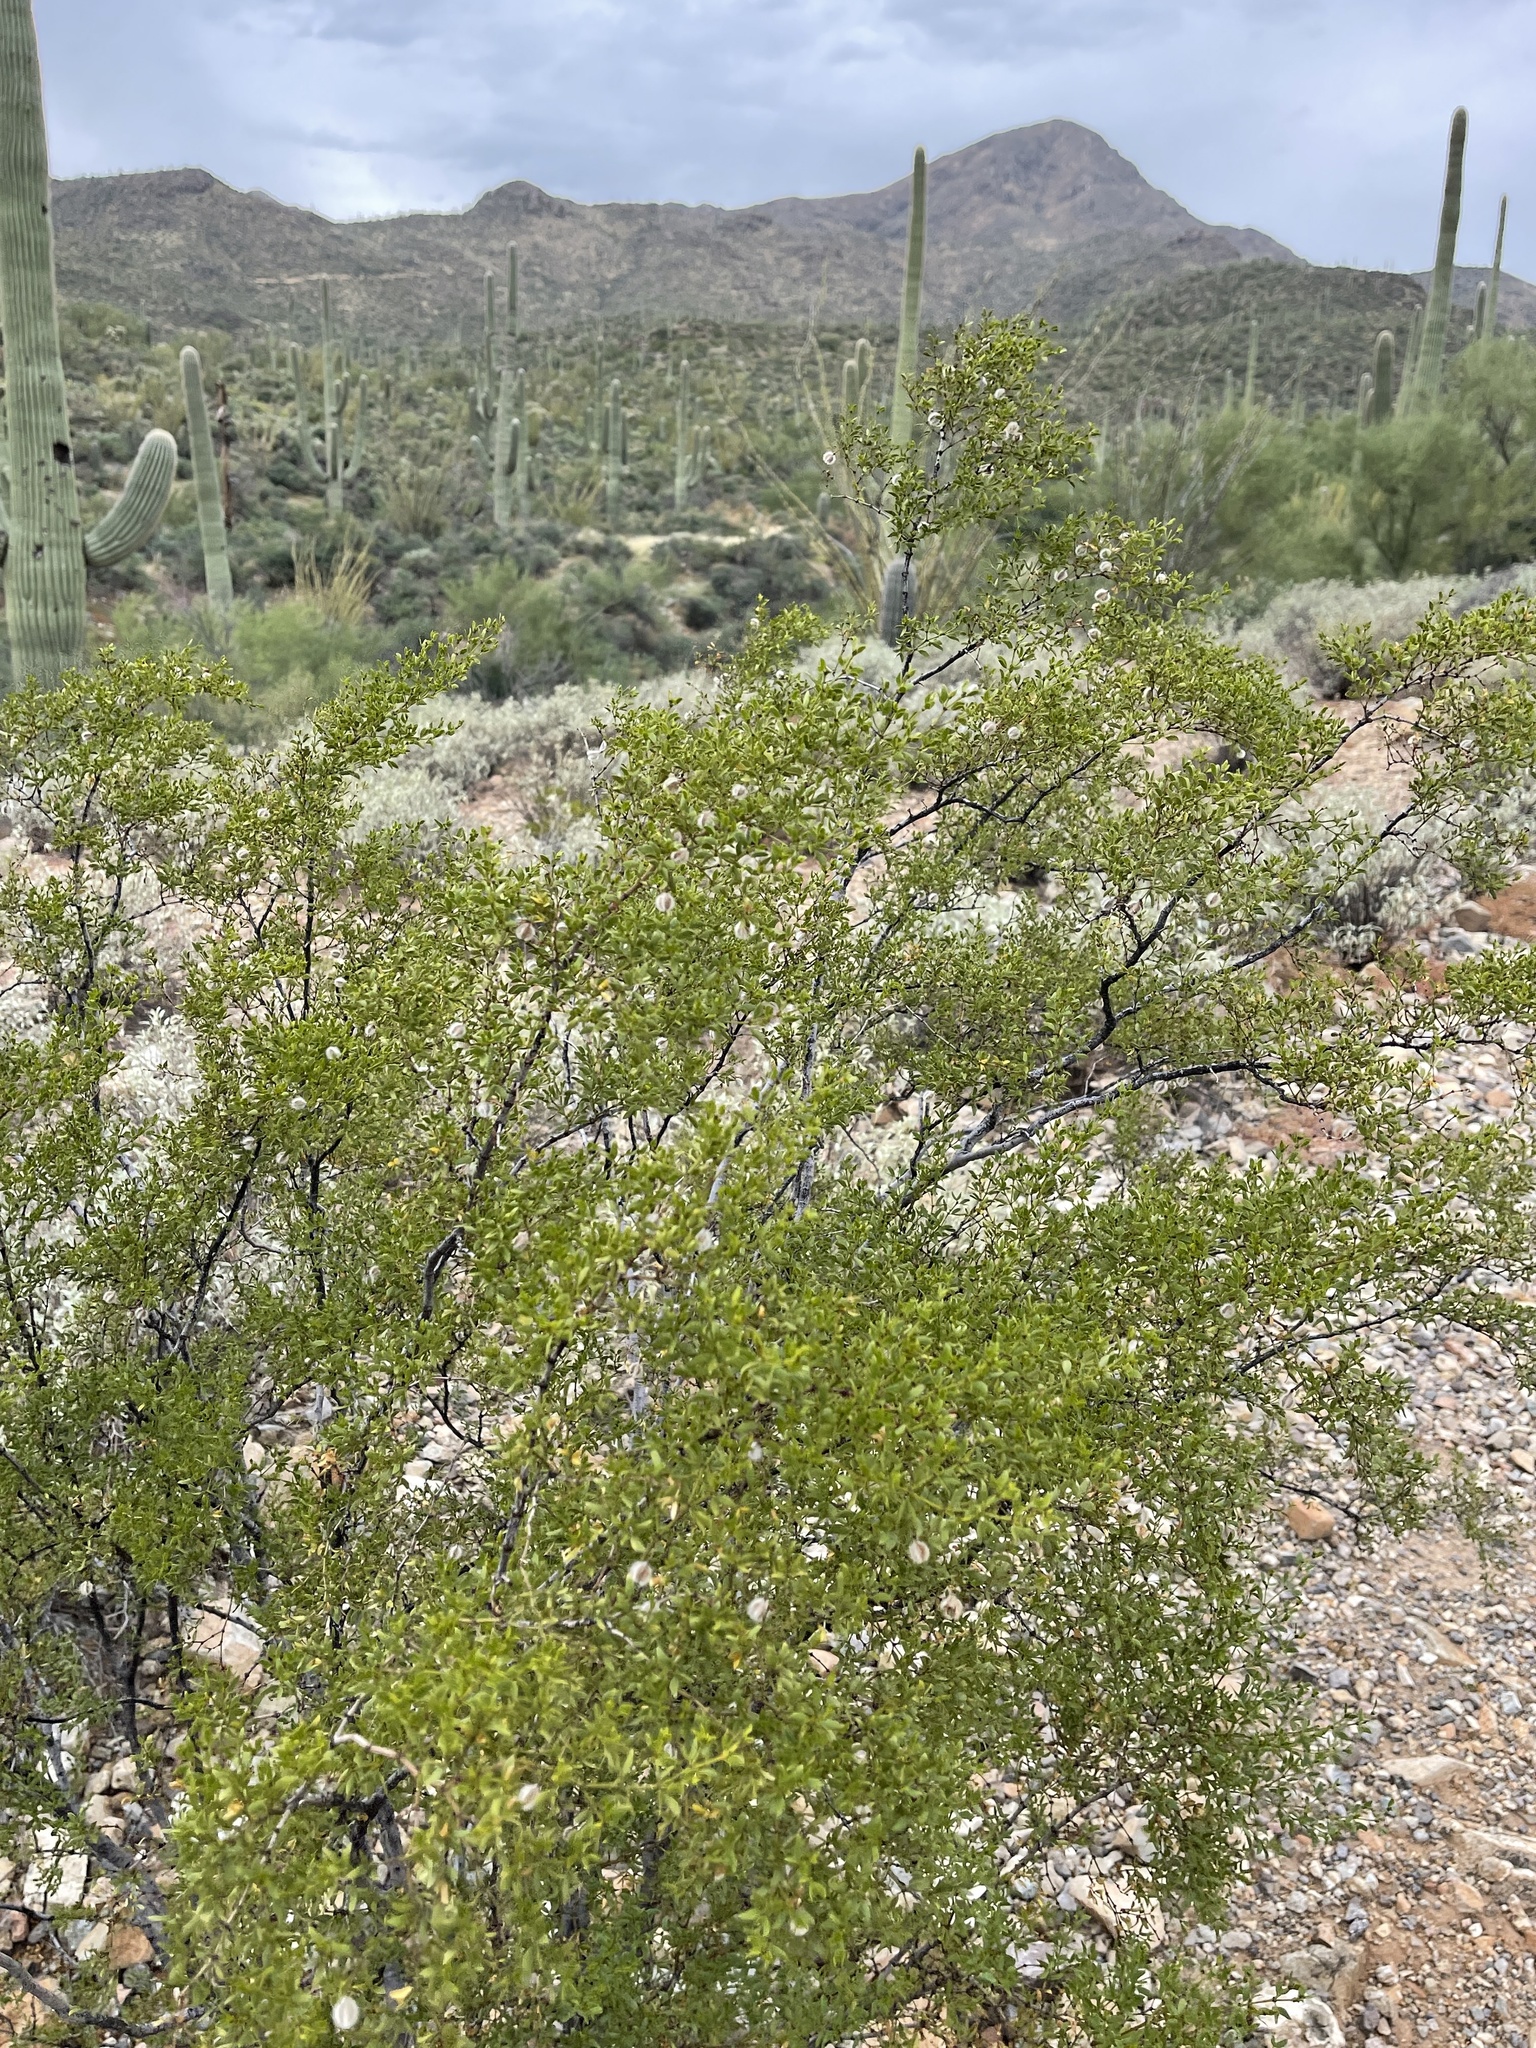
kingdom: Plantae
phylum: Tracheophyta
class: Magnoliopsida
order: Zygophyllales
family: Zygophyllaceae
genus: Larrea
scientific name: Larrea tridentata
